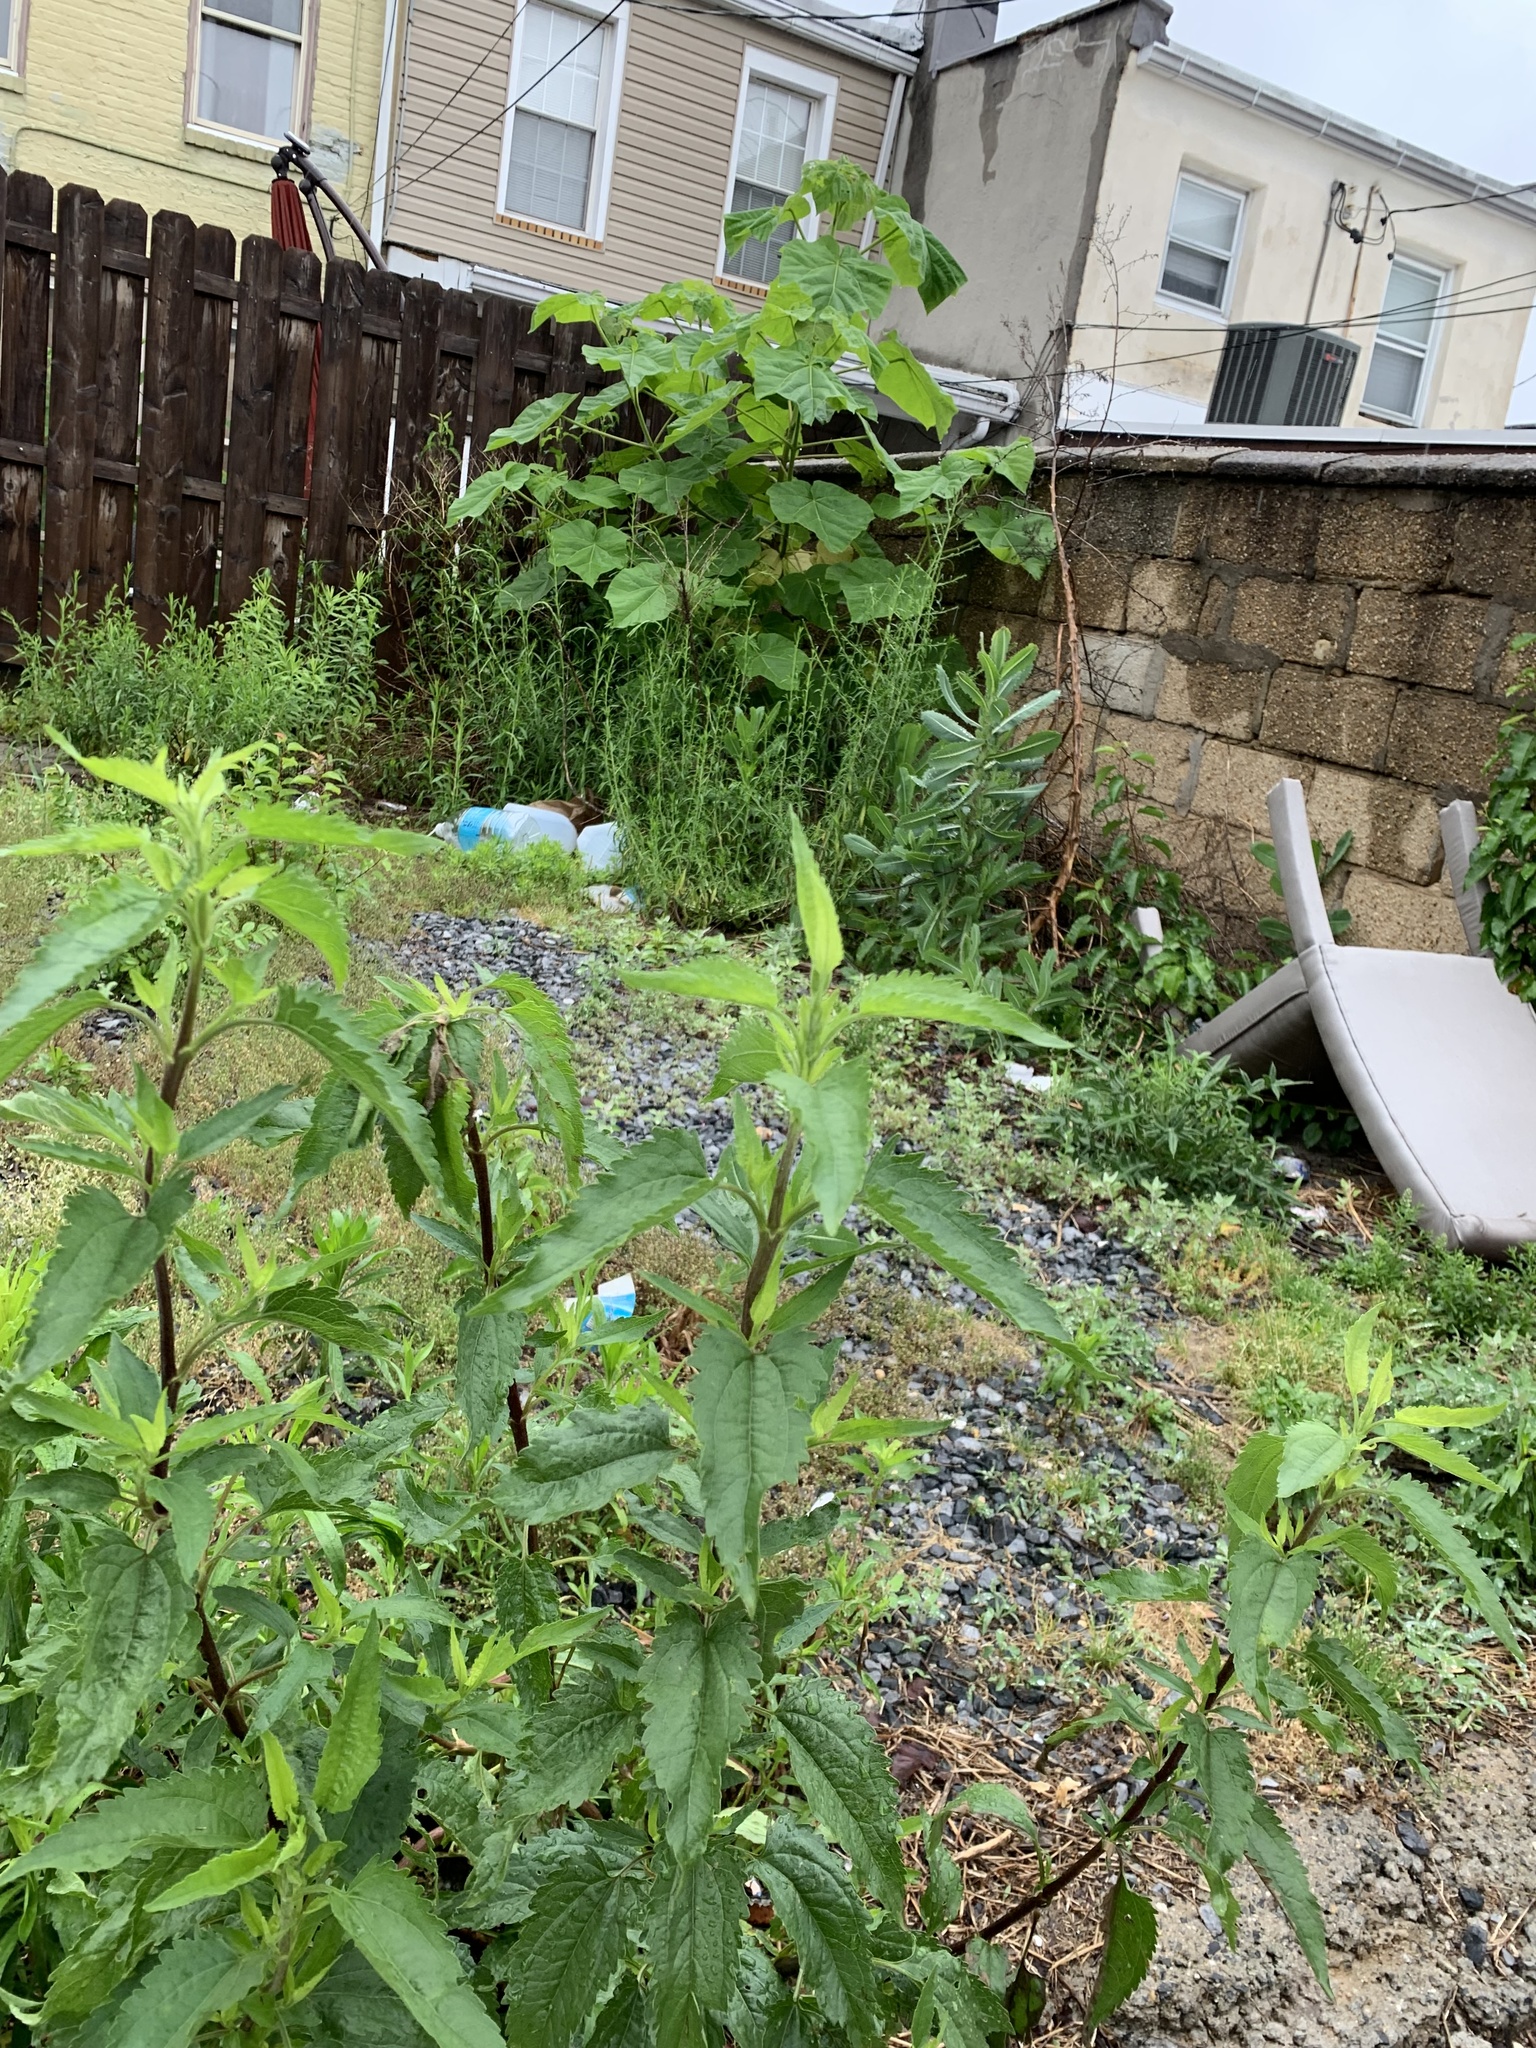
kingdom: Plantae
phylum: Tracheophyta
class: Magnoliopsida
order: Asterales
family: Asteraceae
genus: Eupatorium
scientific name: Eupatorium serotinum
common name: Late boneset
